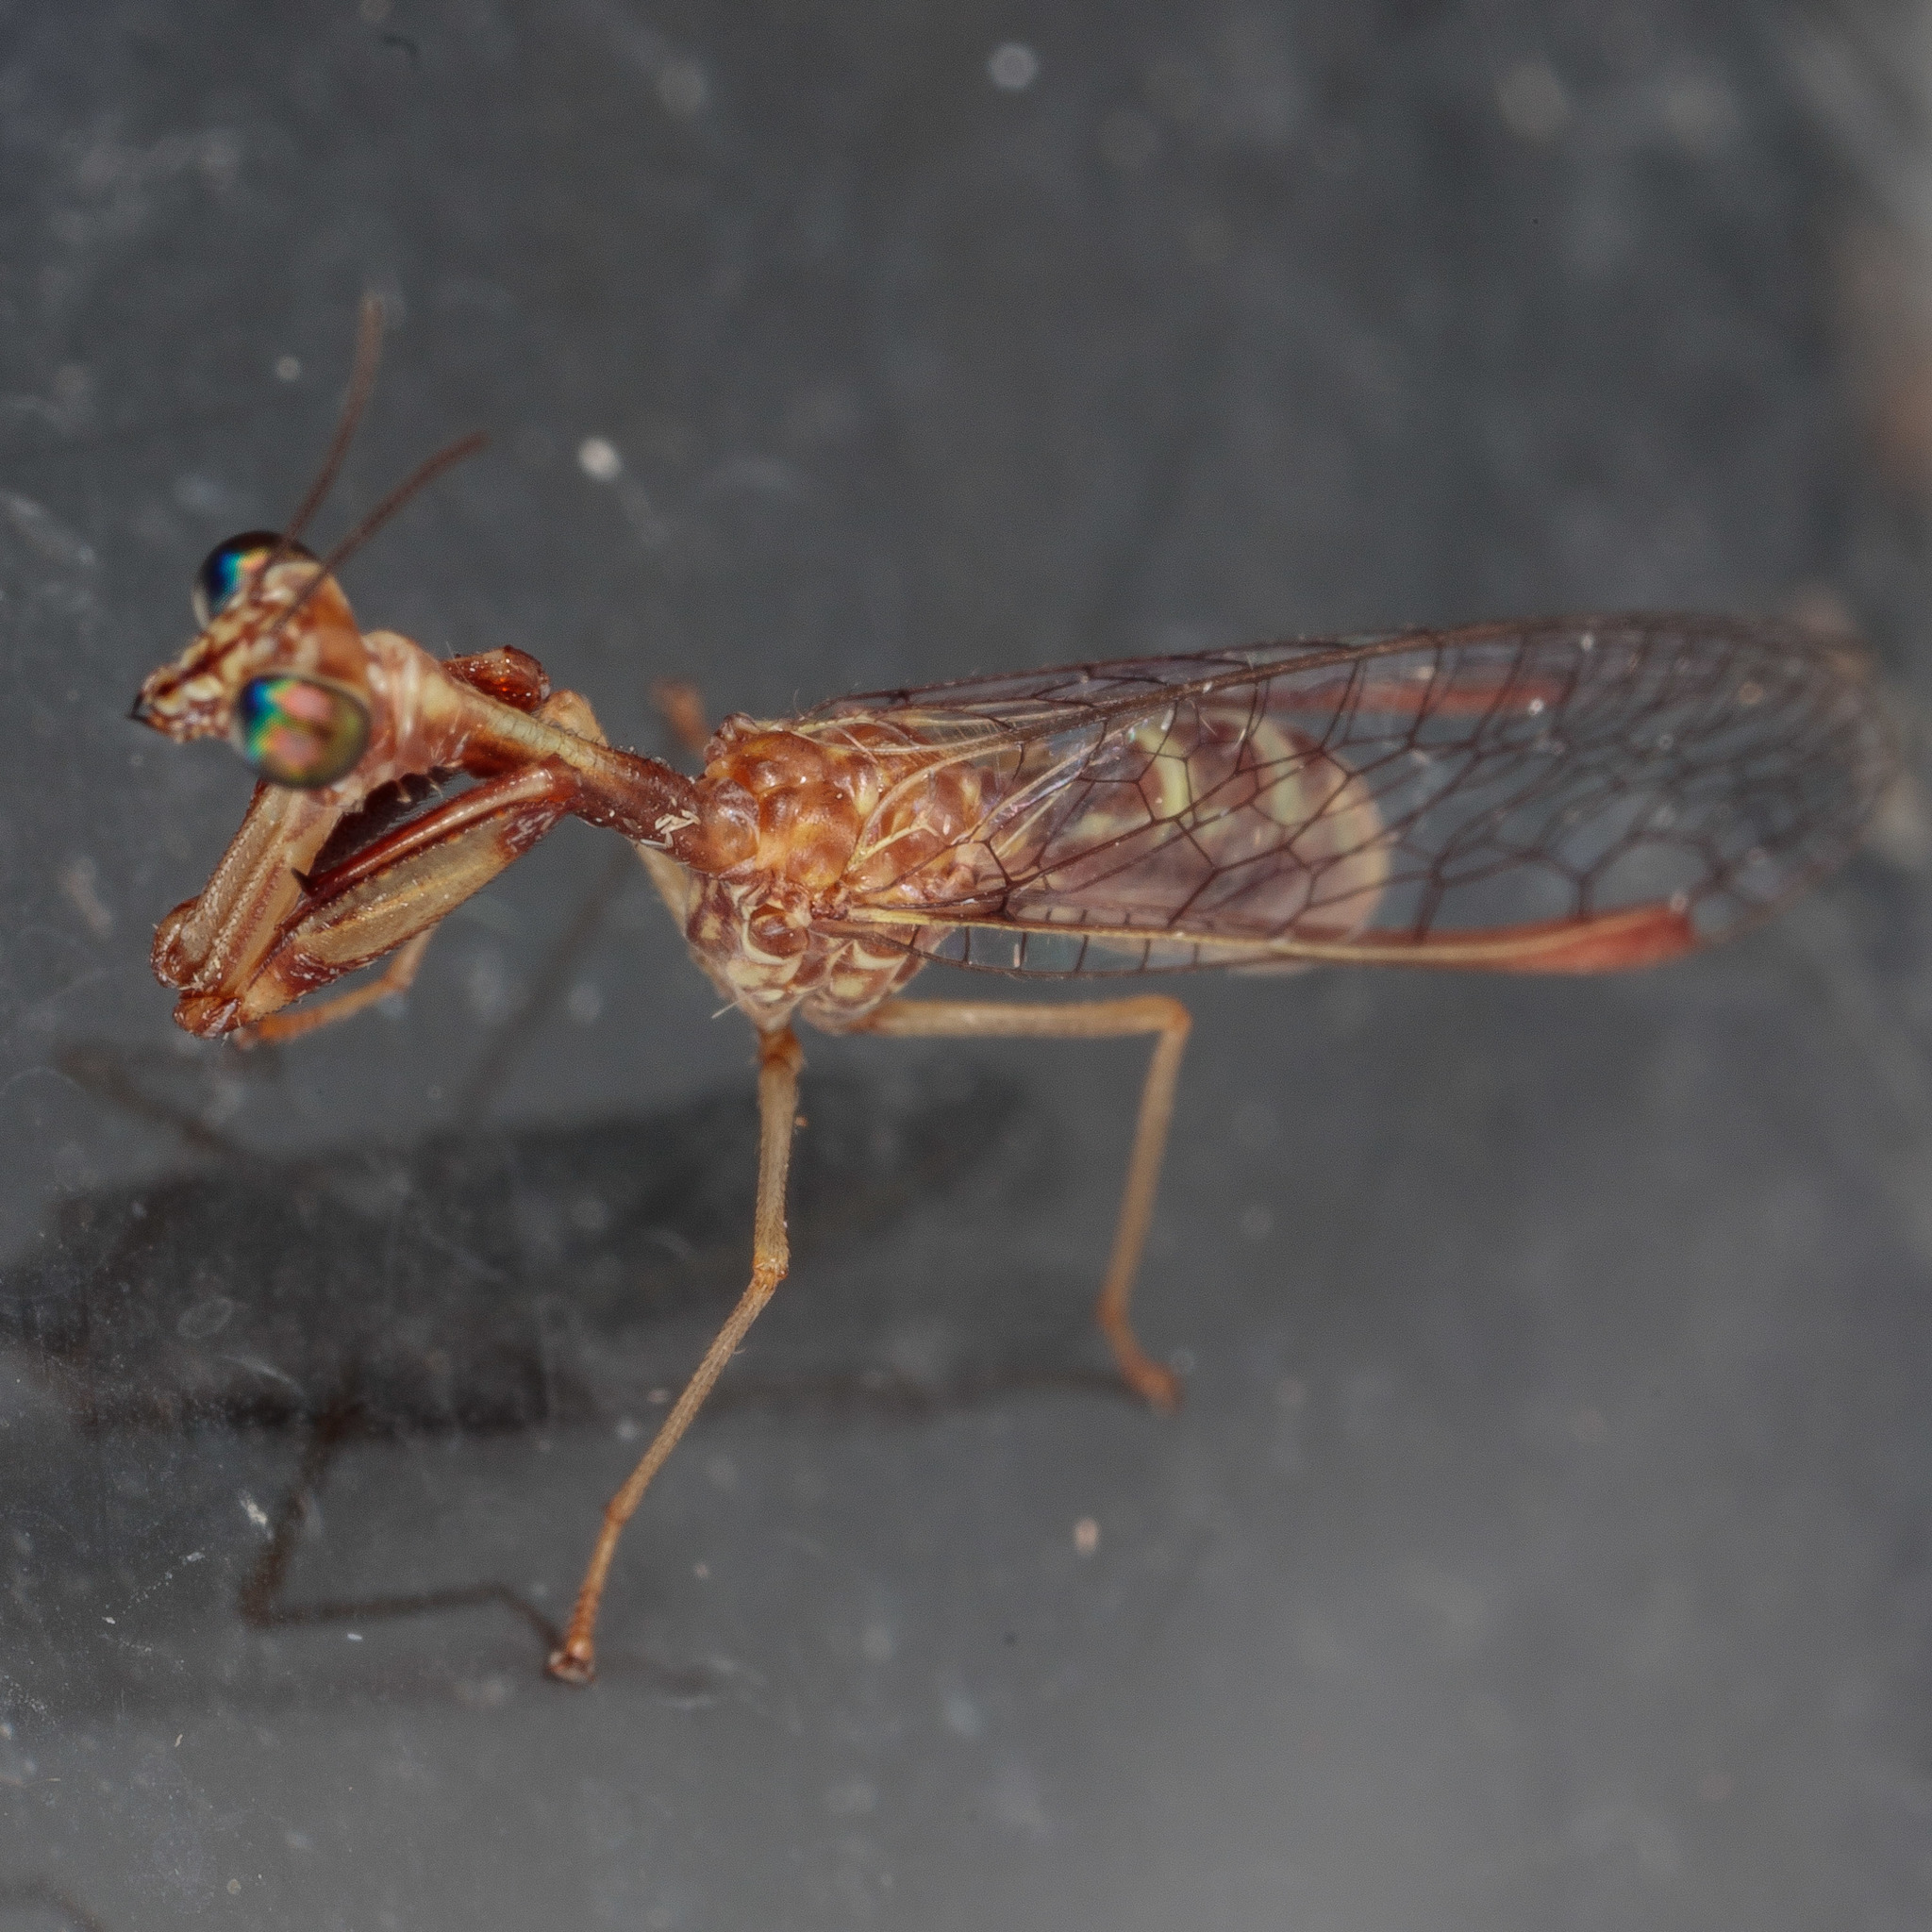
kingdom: Animalia
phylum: Arthropoda
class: Insecta
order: Neuroptera
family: Mantispidae
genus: Leptomantispa
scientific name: Leptomantispa pulchella
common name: Stevens's mantidfly
